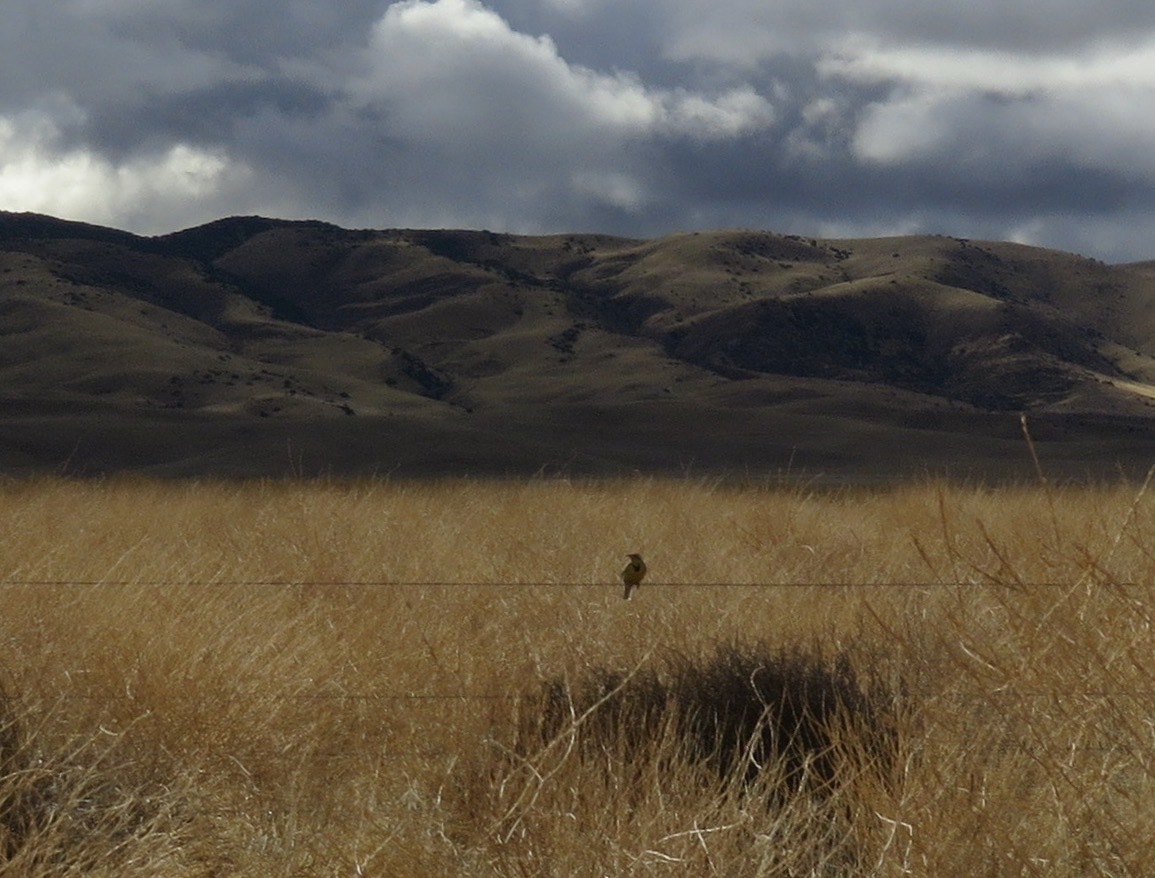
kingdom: Animalia
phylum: Chordata
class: Aves
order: Passeriformes
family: Icteridae
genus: Sturnella
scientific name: Sturnella neglecta
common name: Western meadowlark
